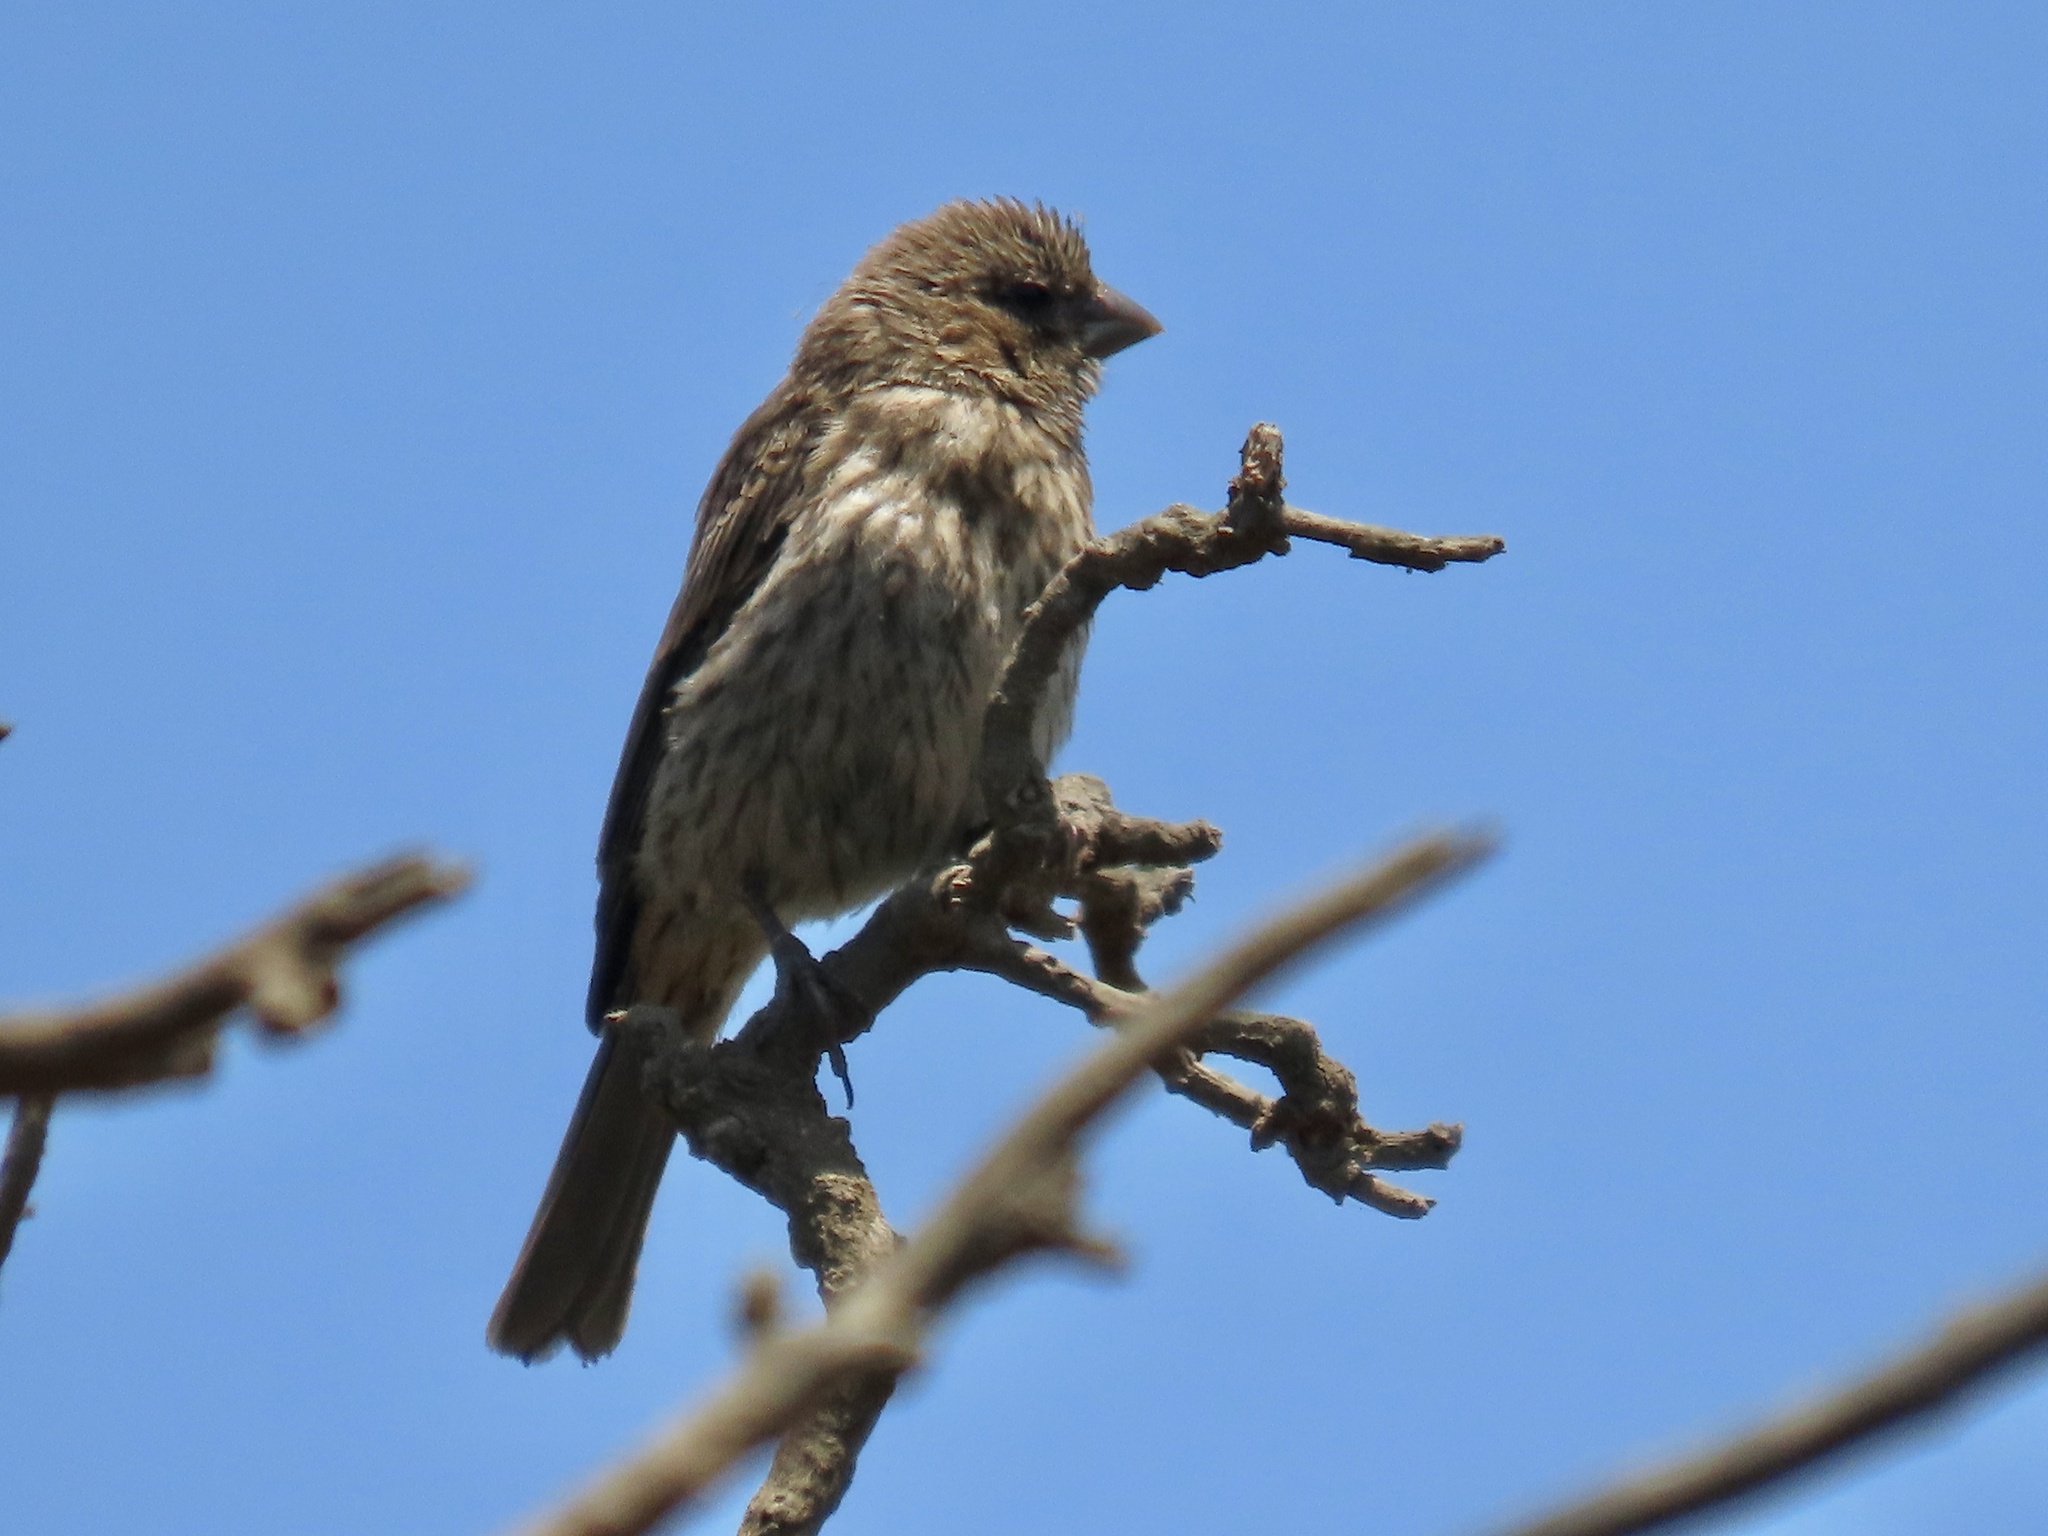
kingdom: Animalia
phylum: Chordata
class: Aves
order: Passeriformes
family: Fringillidae
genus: Haemorhous
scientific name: Haemorhous mexicanus
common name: House finch
